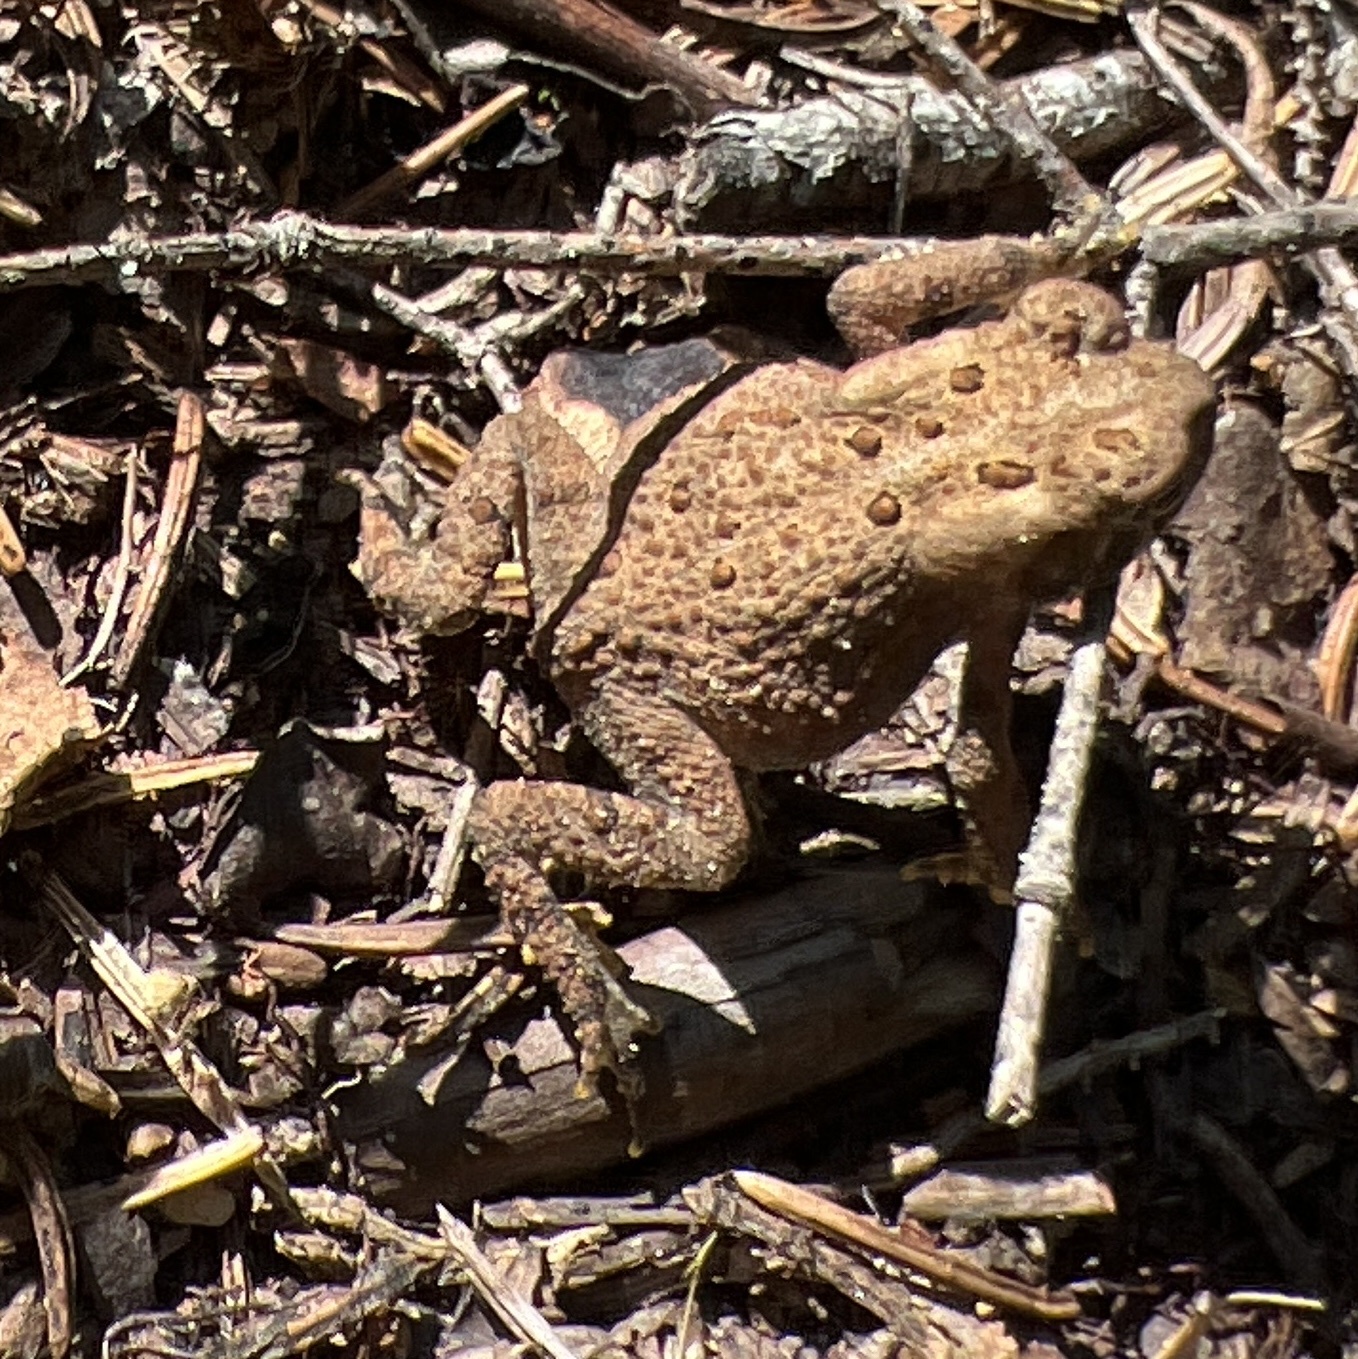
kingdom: Animalia
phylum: Chordata
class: Amphibia
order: Anura
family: Bufonidae
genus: Anaxyrus
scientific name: Anaxyrus americanus
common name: American toad
